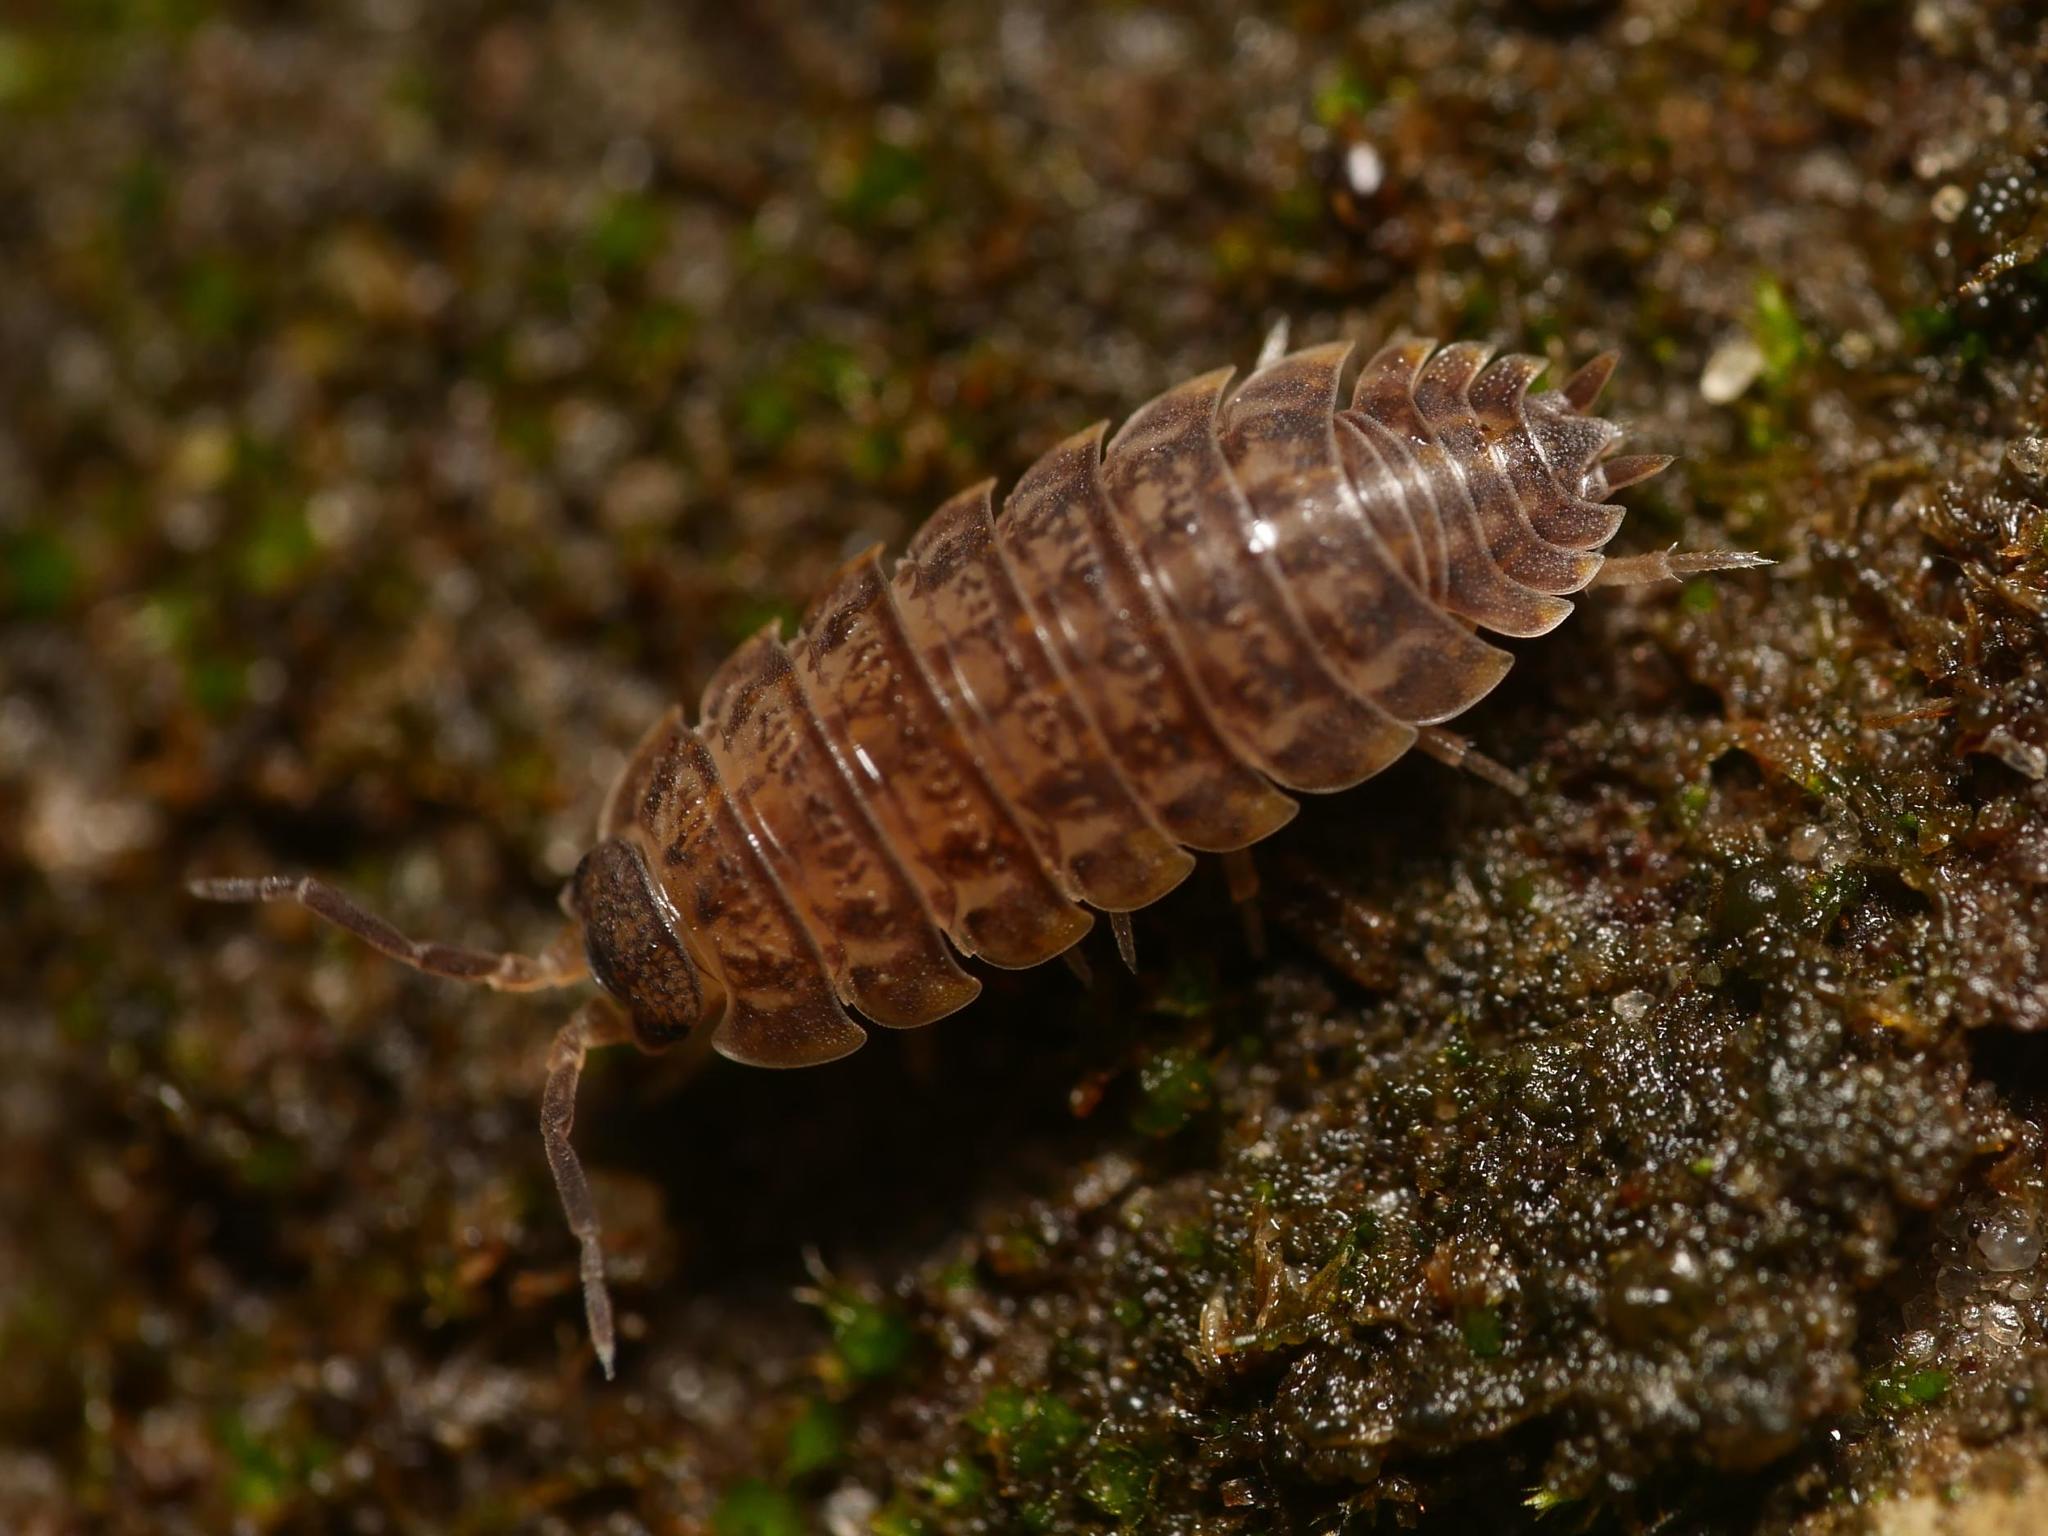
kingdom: Animalia
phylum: Arthropoda
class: Malacostraca
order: Isopoda
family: Trachelipodidae
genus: Trachelipus
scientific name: Trachelipus rathkii
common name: Isopod
